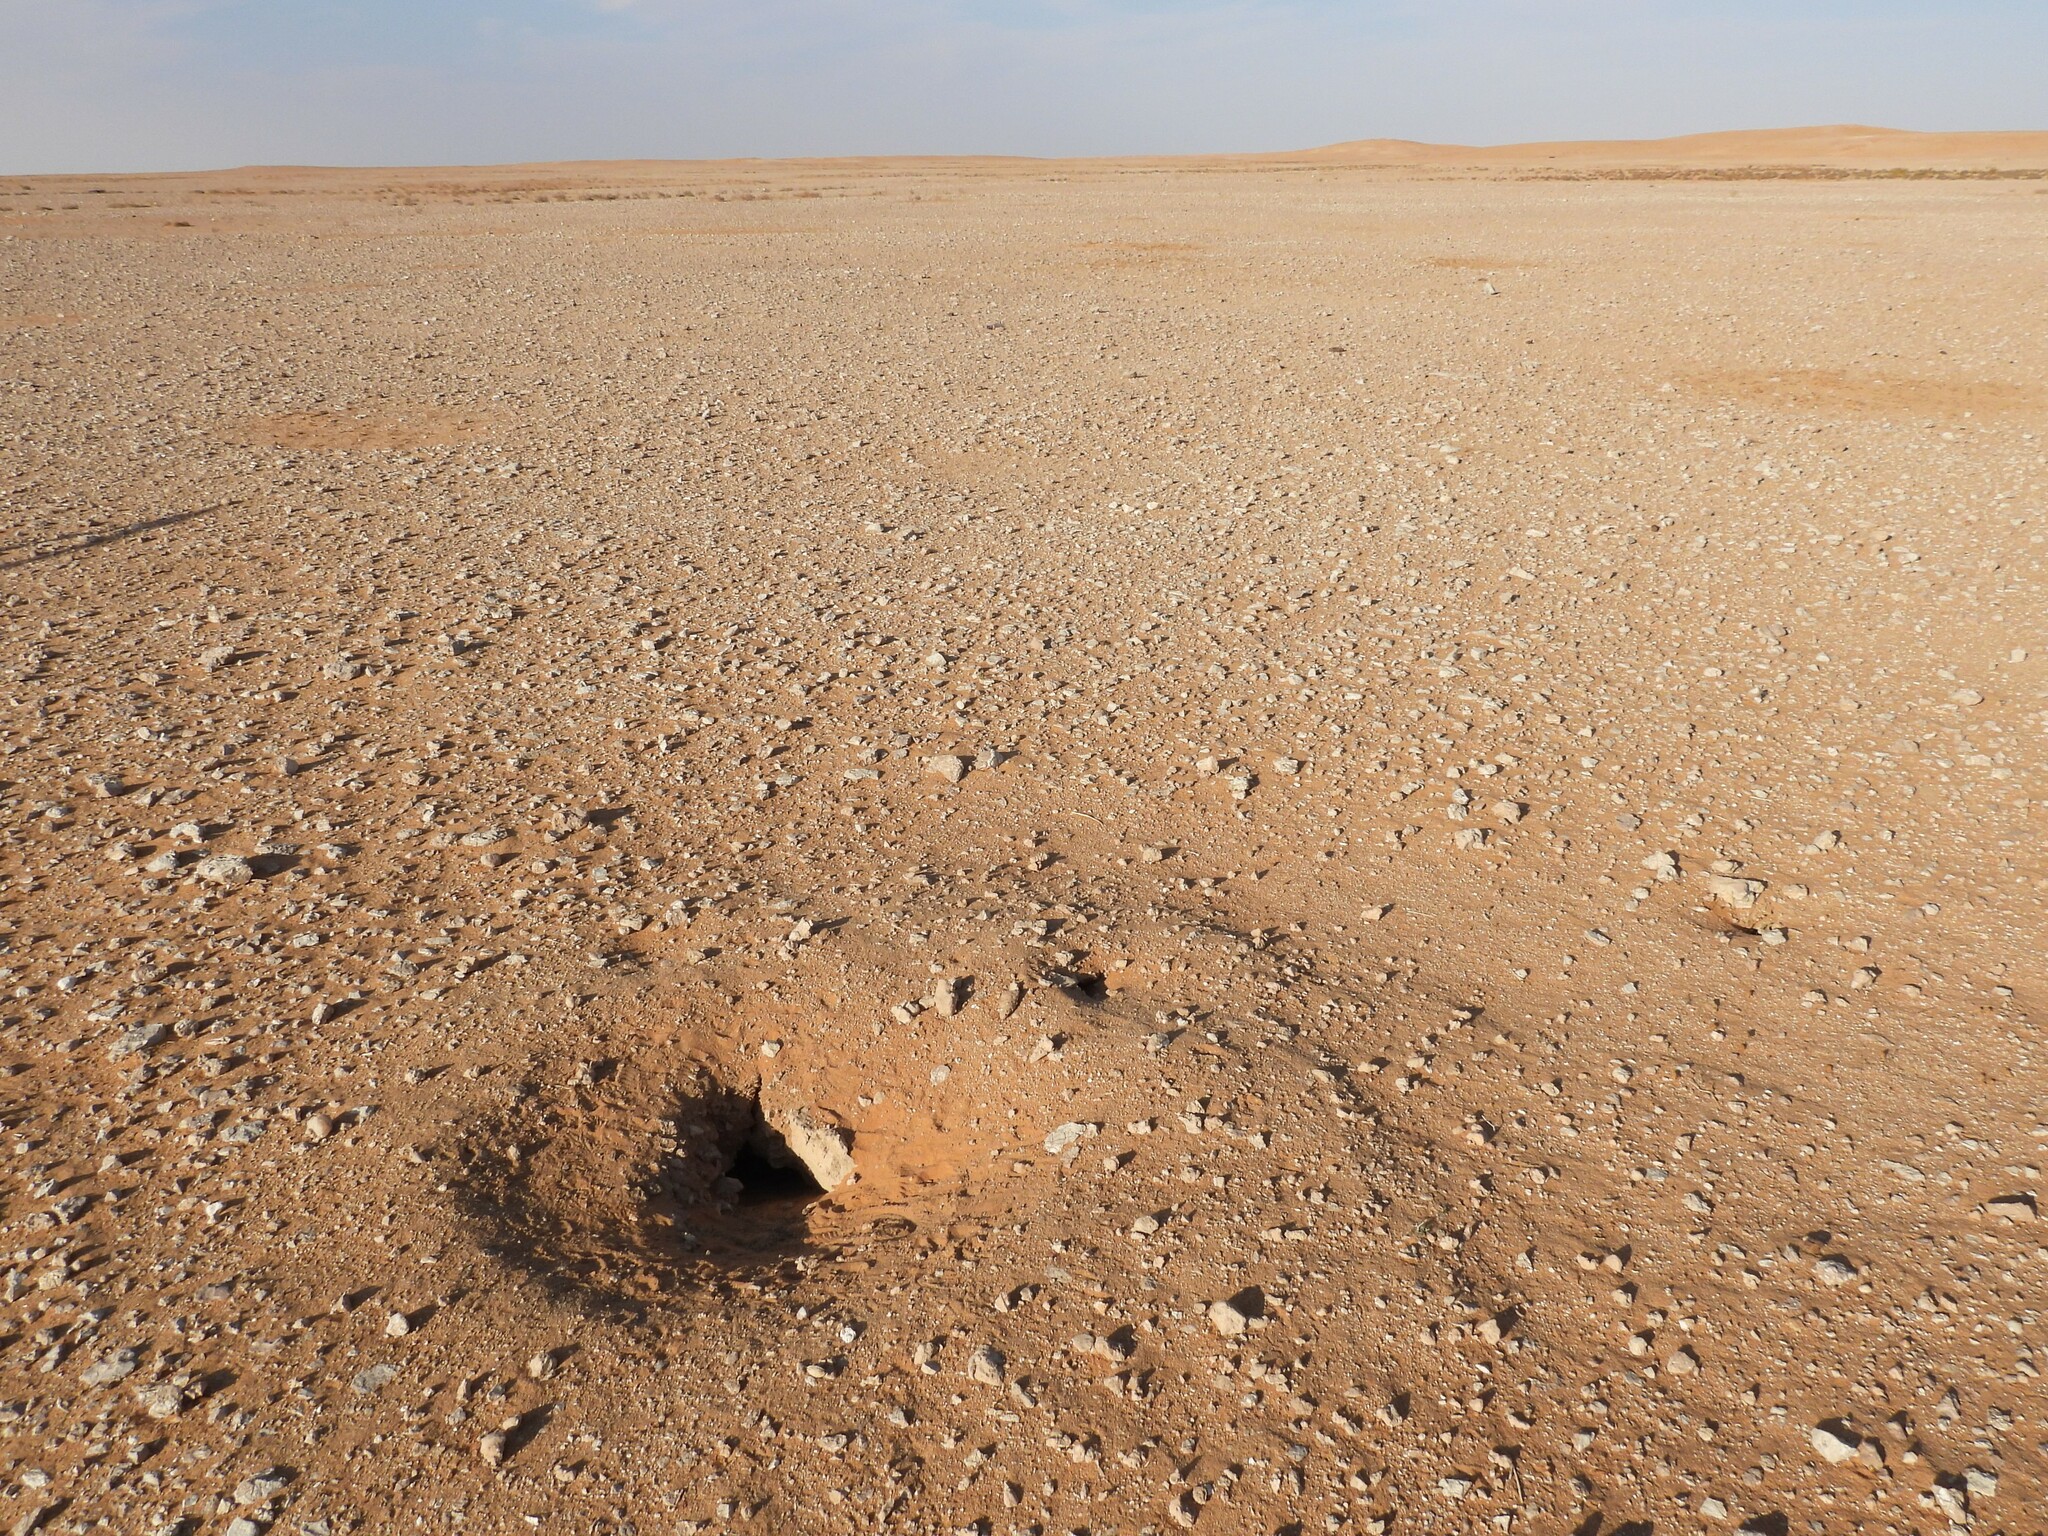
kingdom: Animalia
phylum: Chordata
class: Squamata
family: Agamidae
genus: Uromastyx
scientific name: Uromastyx aegyptia
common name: Egyptian mastigure
